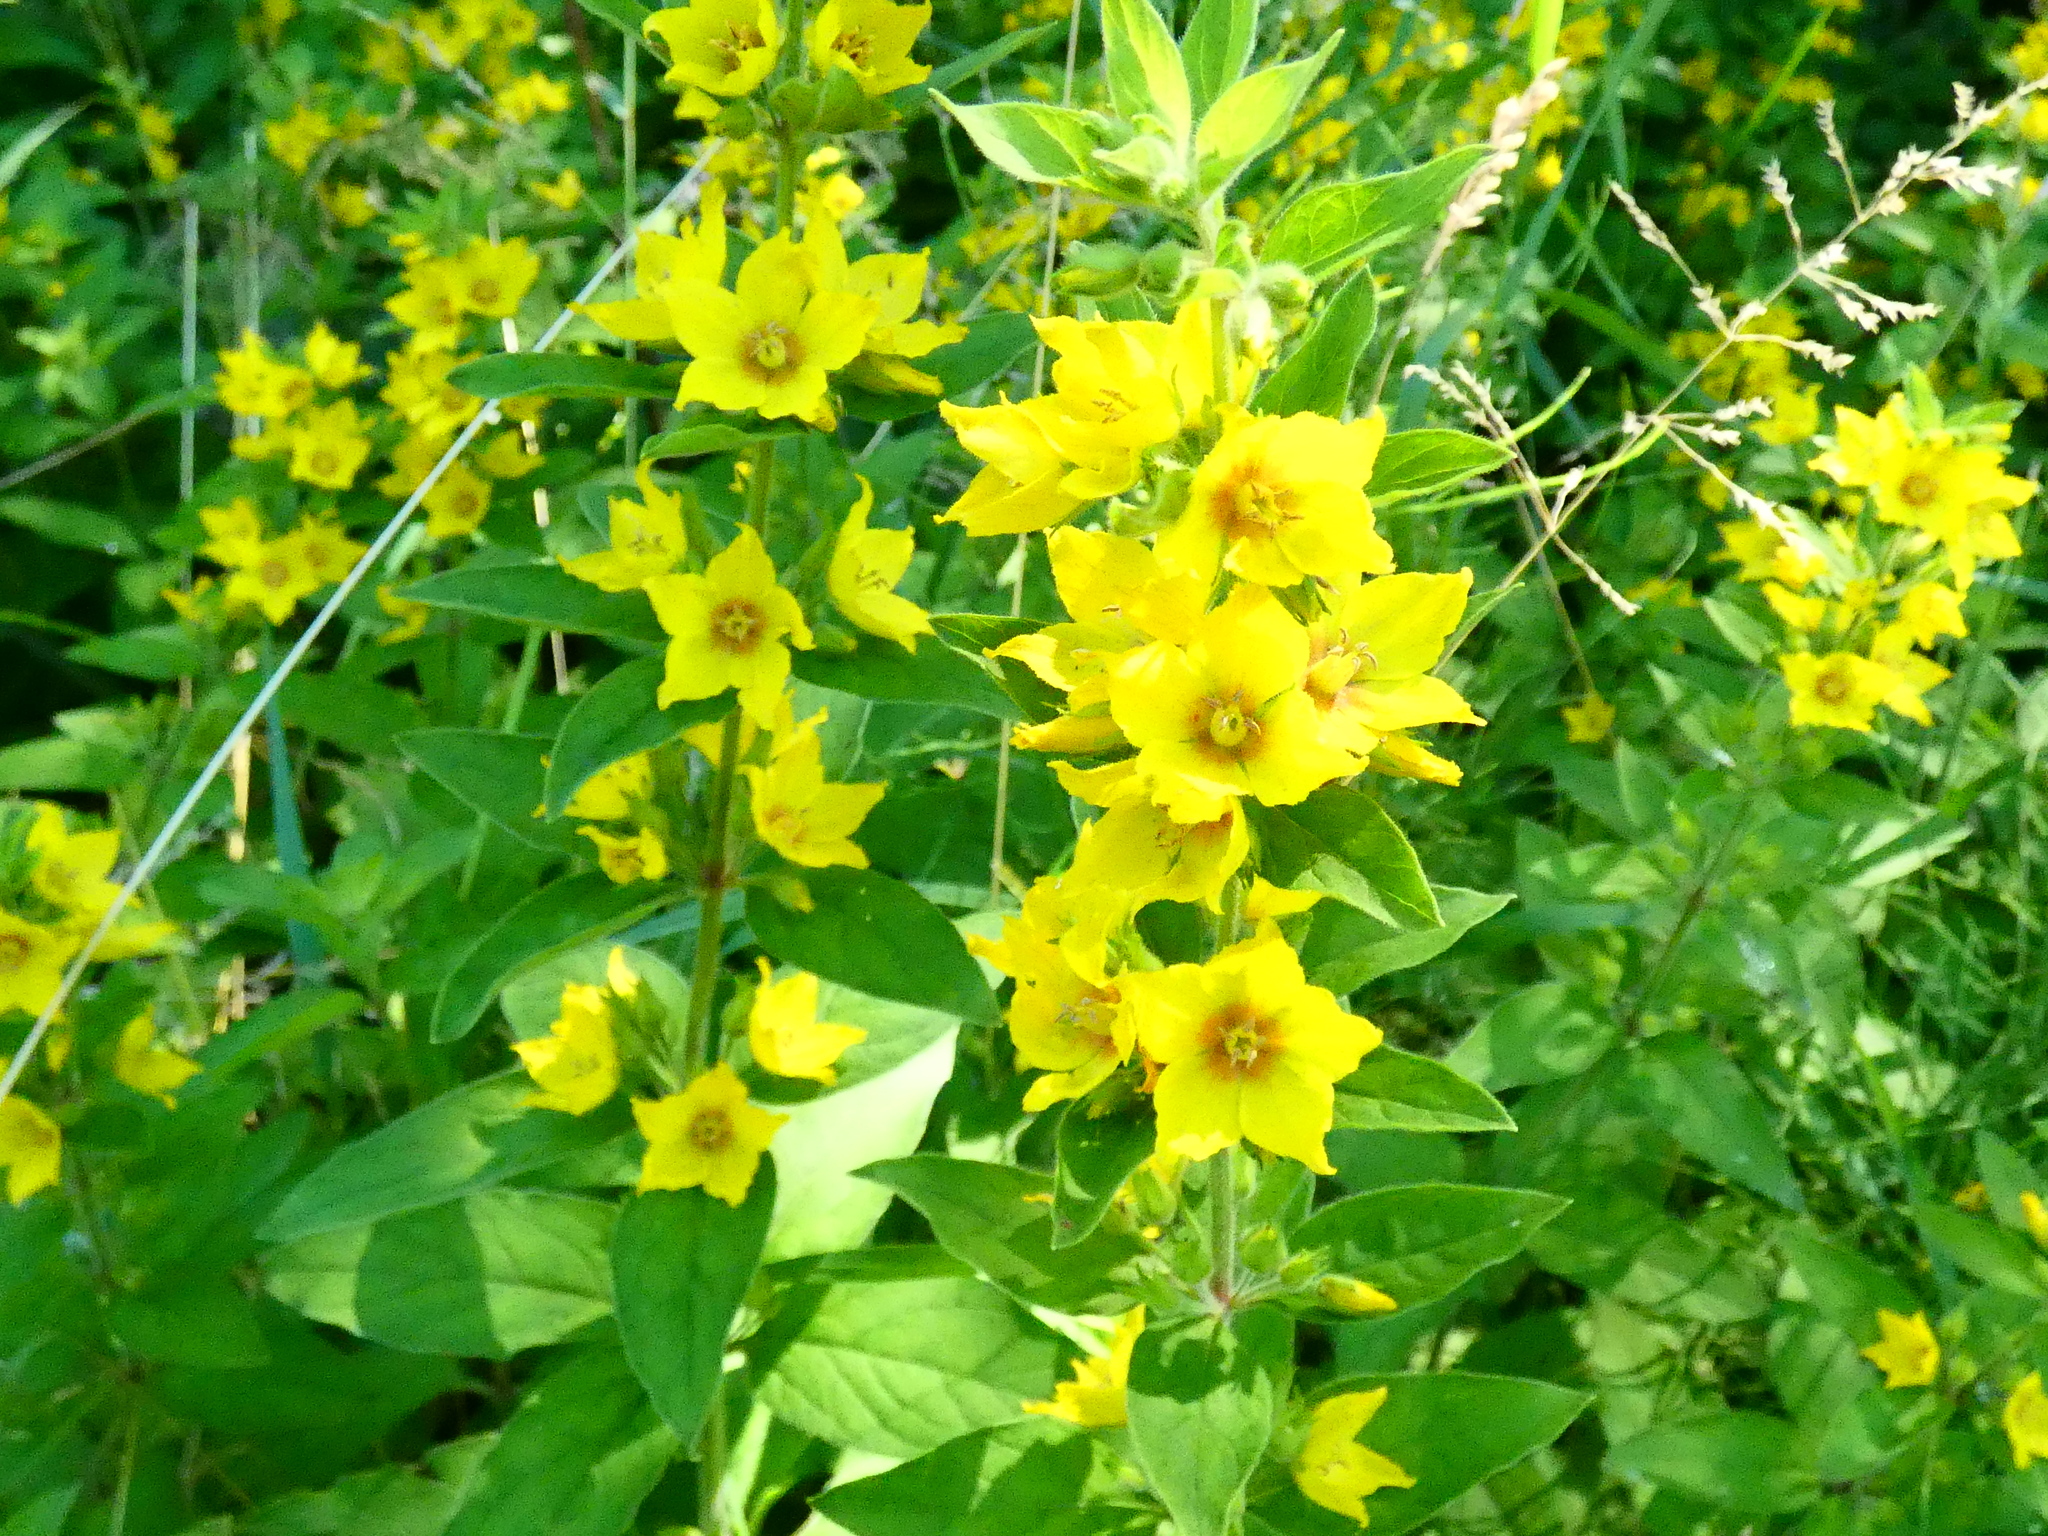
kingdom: Plantae
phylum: Tracheophyta
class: Magnoliopsida
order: Ericales
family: Primulaceae
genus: Lysimachia
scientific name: Lysimachia punctata
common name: Dotted loosestrife
